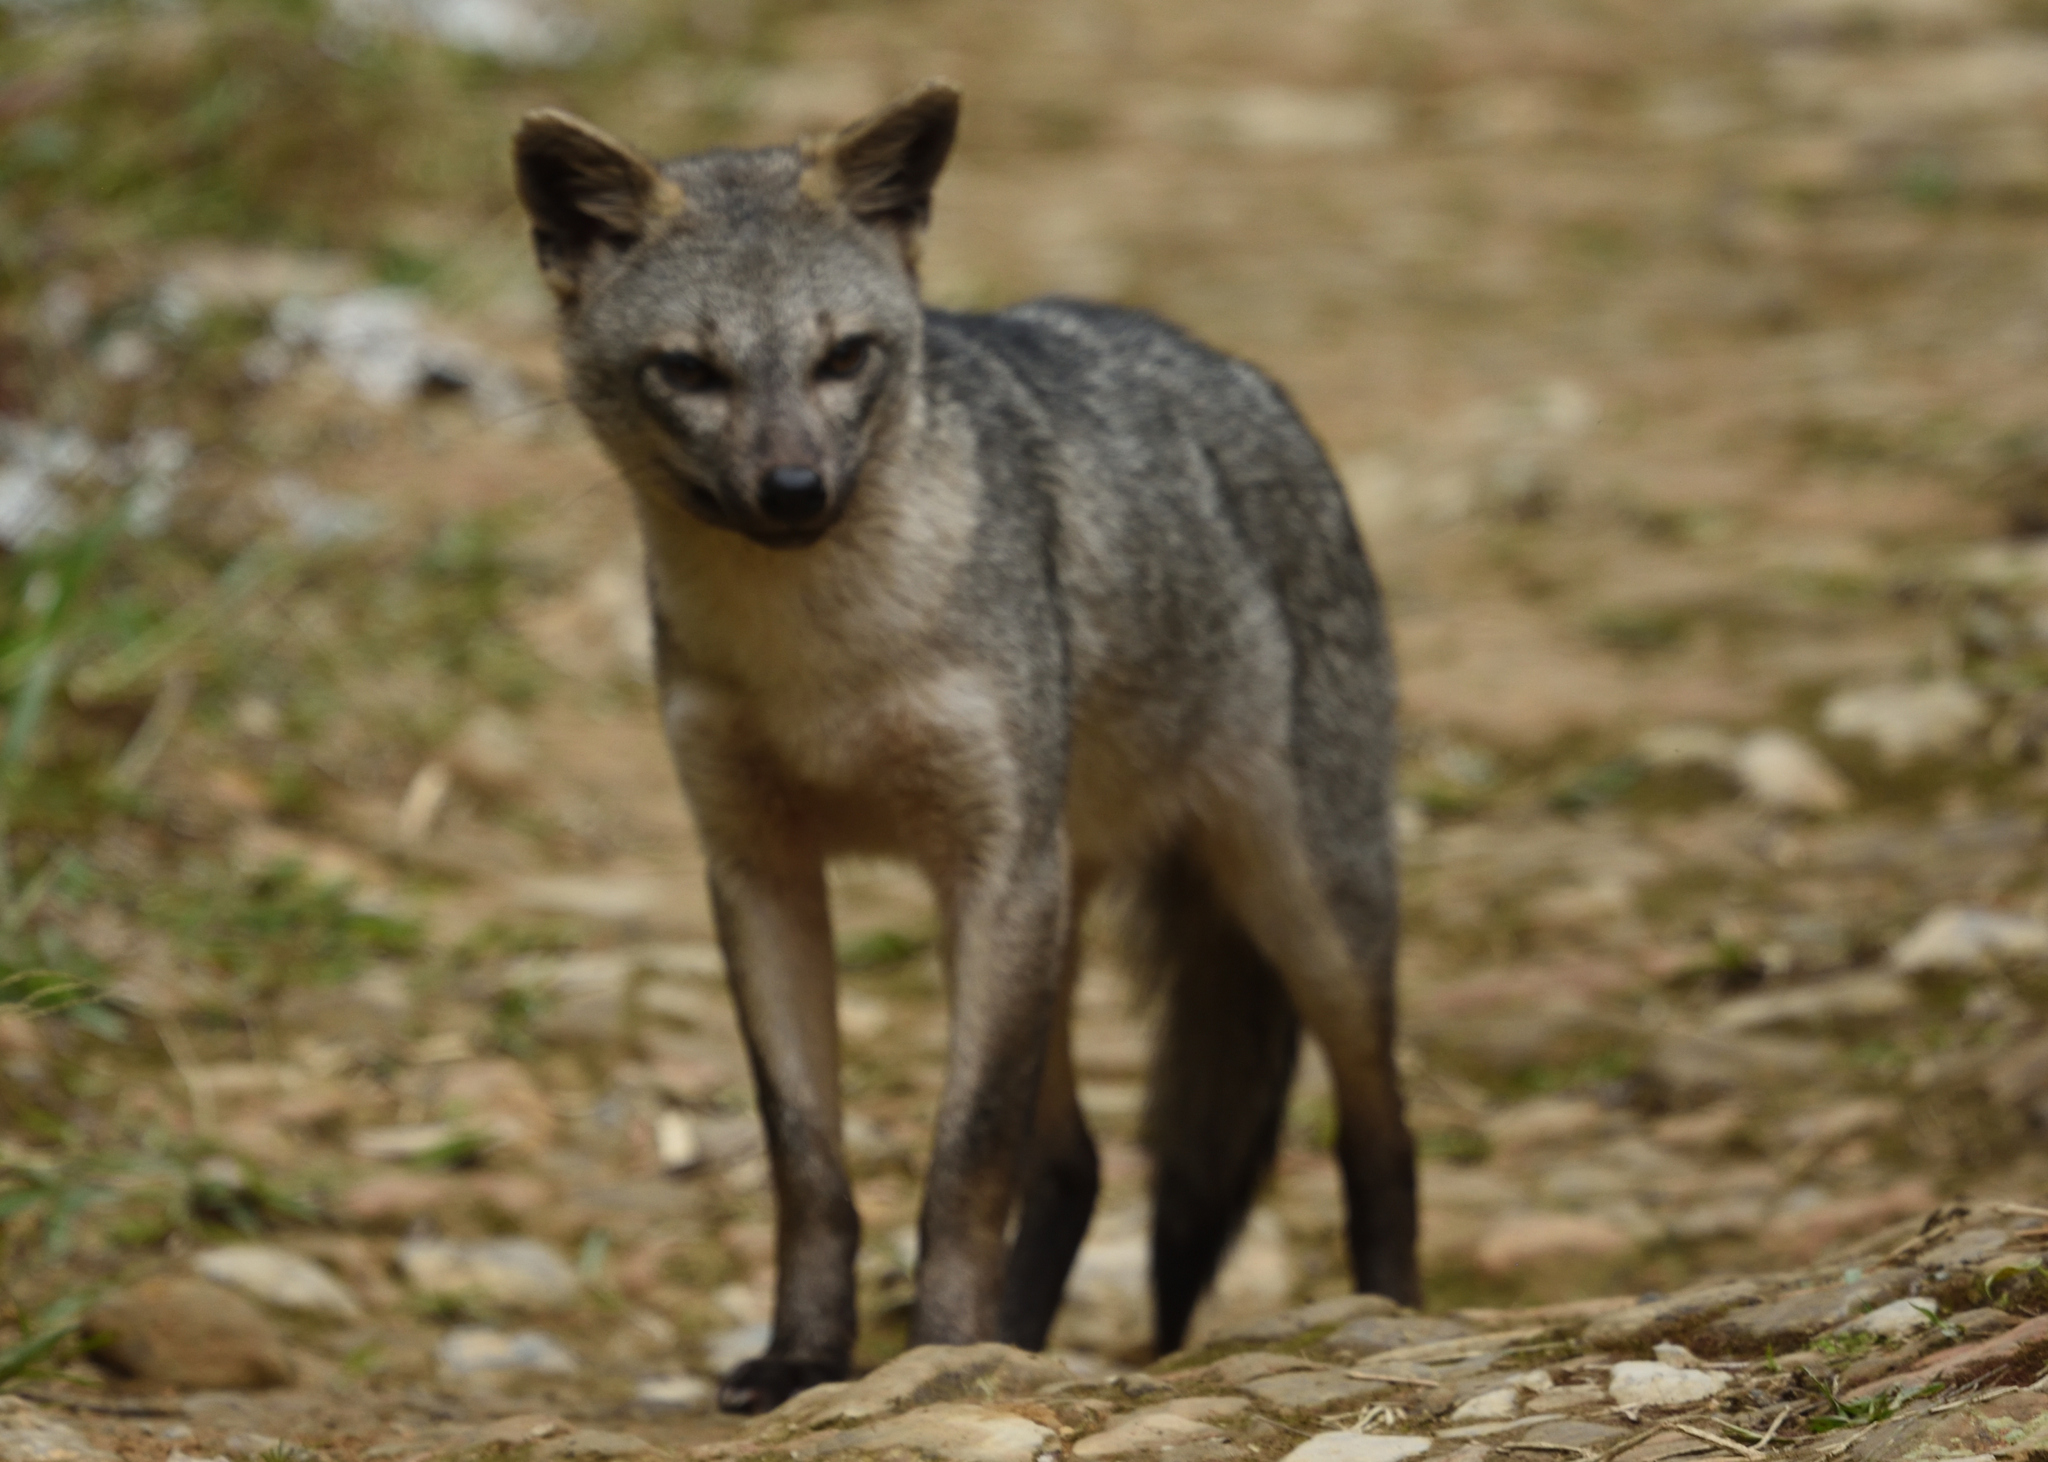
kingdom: Animalia
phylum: Chordata
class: Mammalia
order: Carnivora
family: Canidae
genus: Cerdocyon
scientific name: Cerdocyon thous
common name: Crab-eating fox
